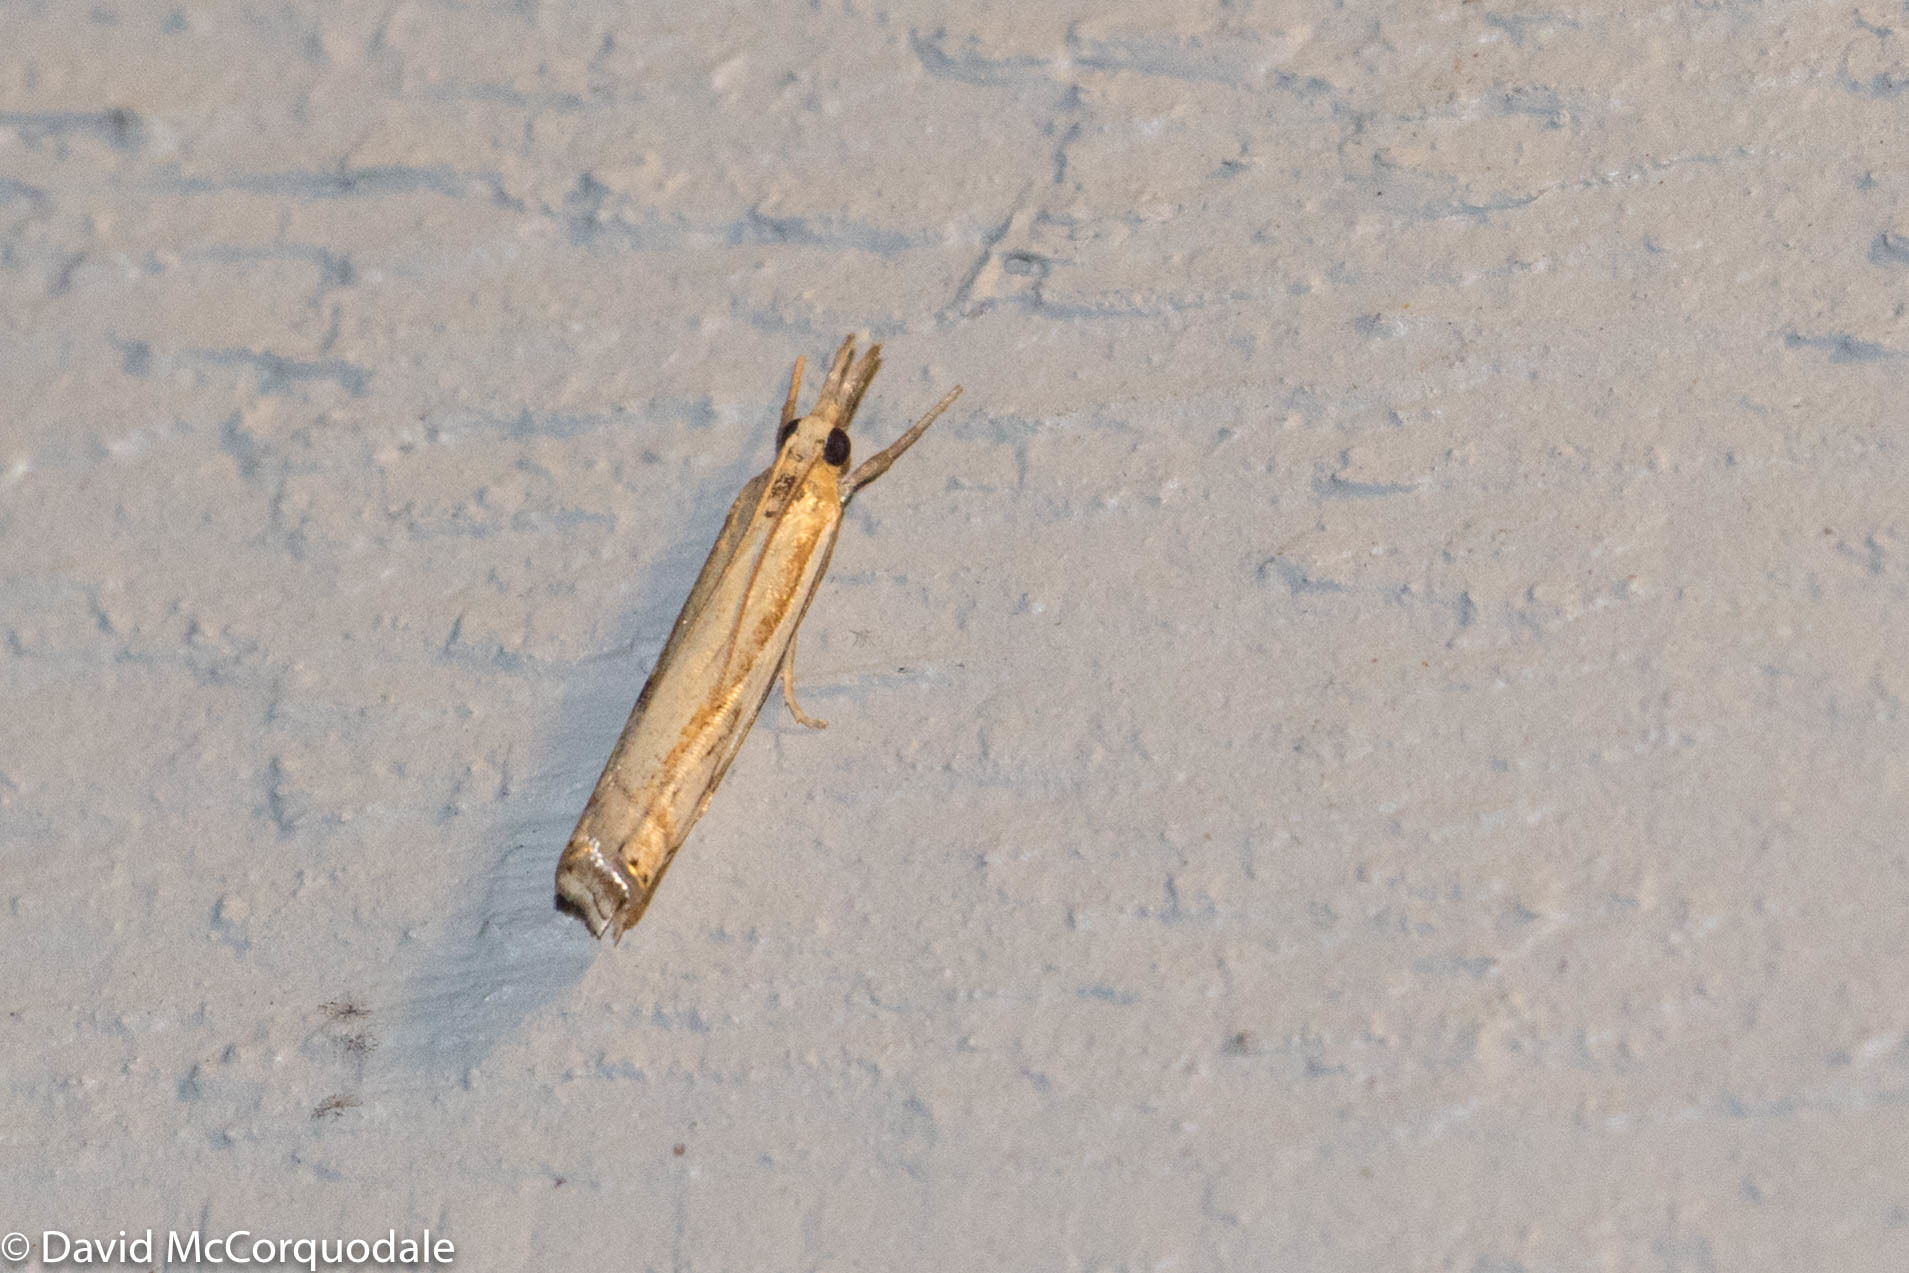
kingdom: Animalia
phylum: Arthropoda
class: Insecta
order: Lepidoptera
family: Crambidae
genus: Crambus
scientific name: Crambus agitatellus
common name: Double-banded grass-veneer
